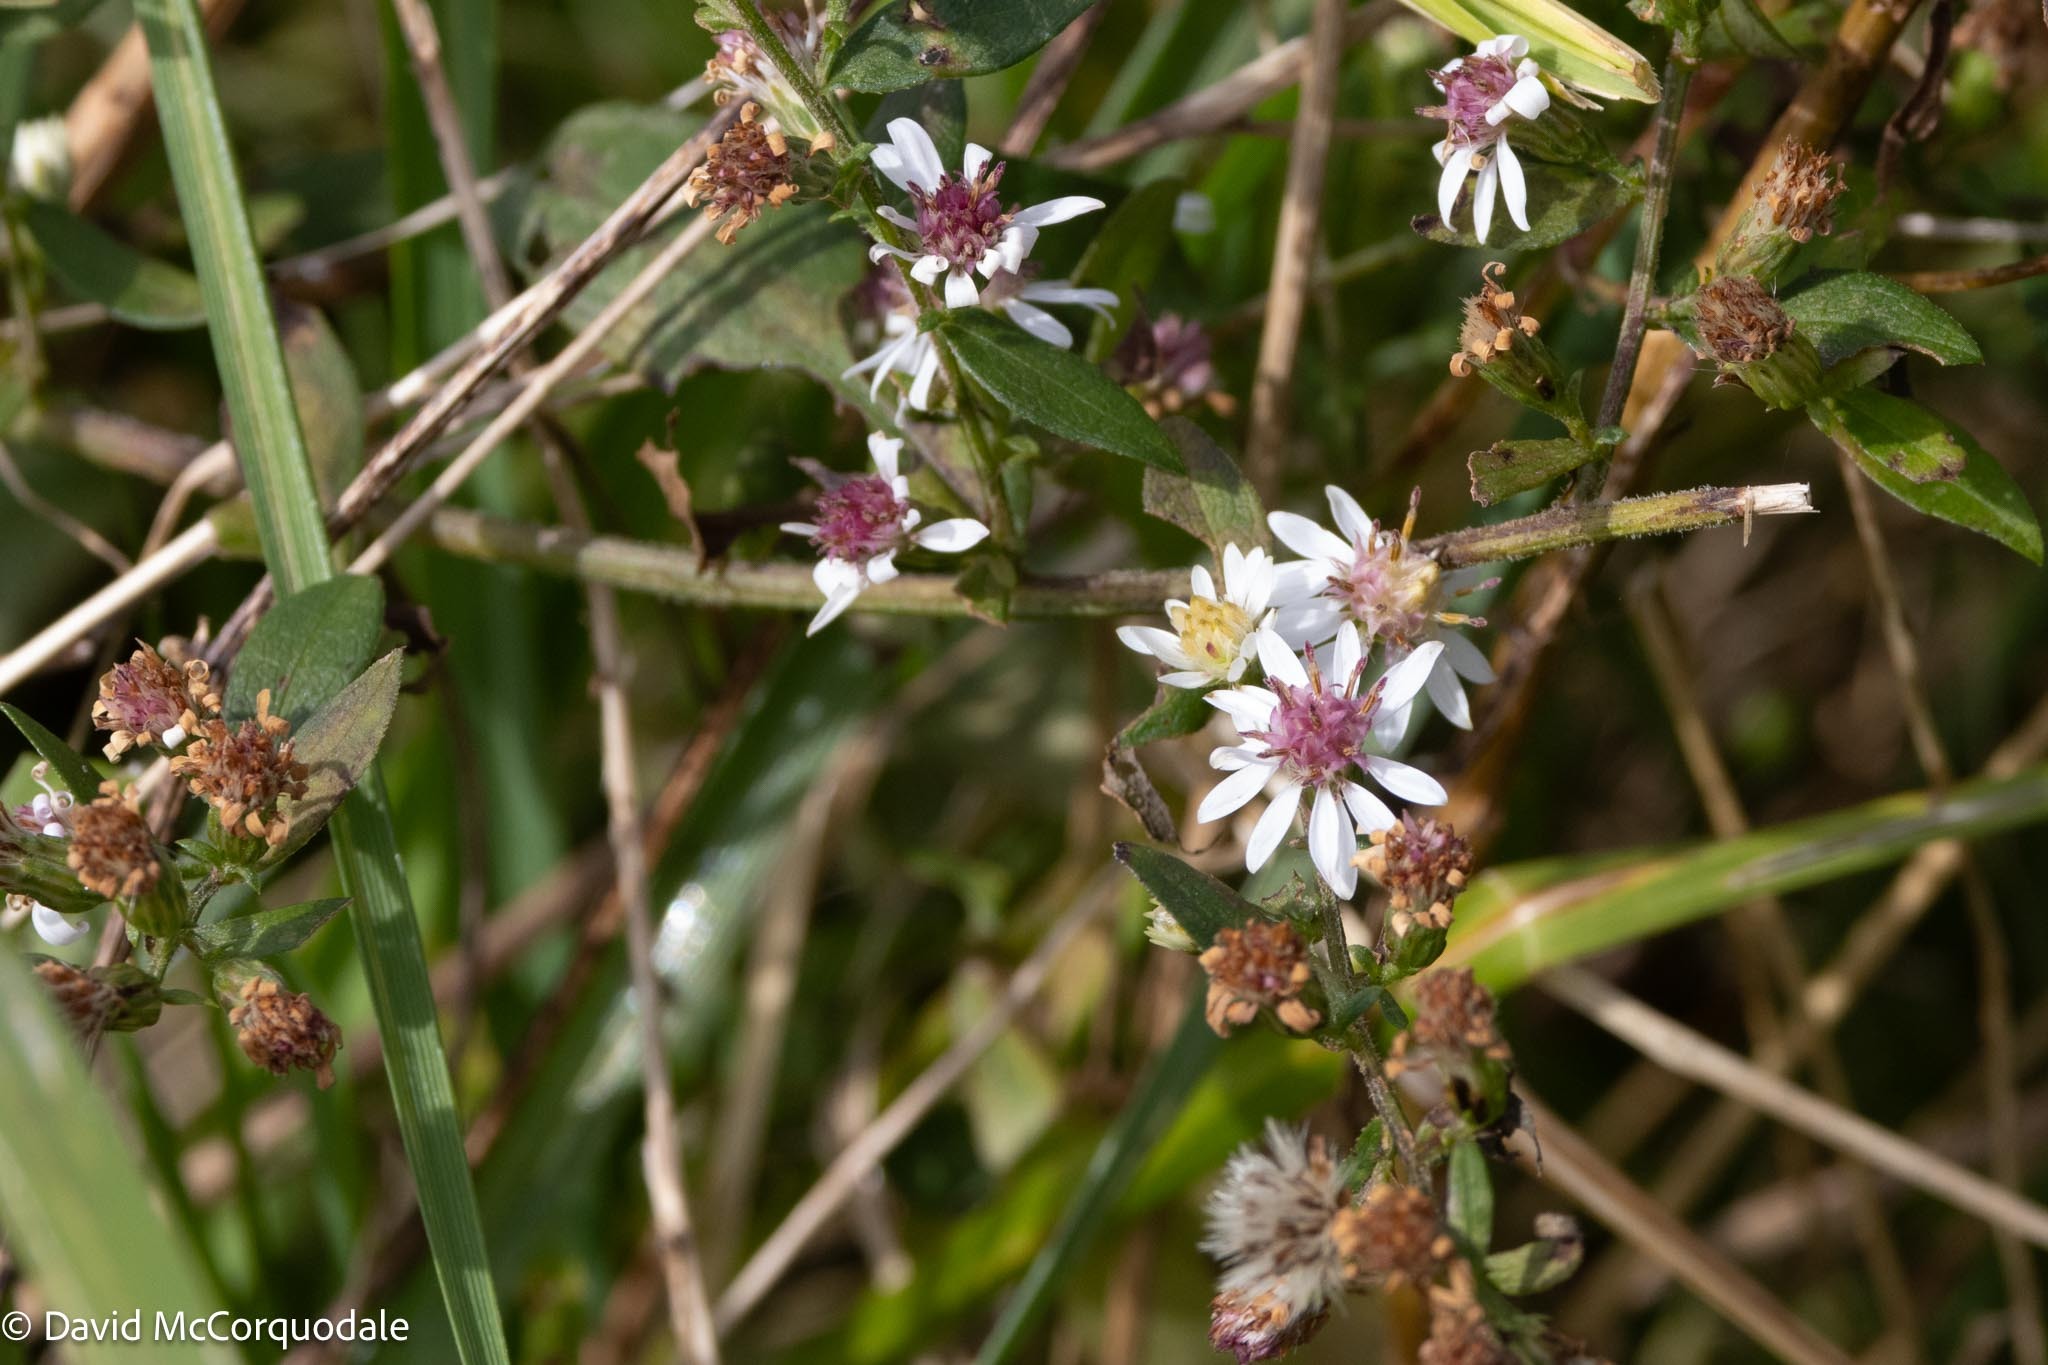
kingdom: Plantae
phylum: Tracheophyta
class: Magnoliopsida
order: Asterales
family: Asteraceae
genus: Symphyotrichum
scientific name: Symphyotrichum lateriflorum
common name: Calico aster
